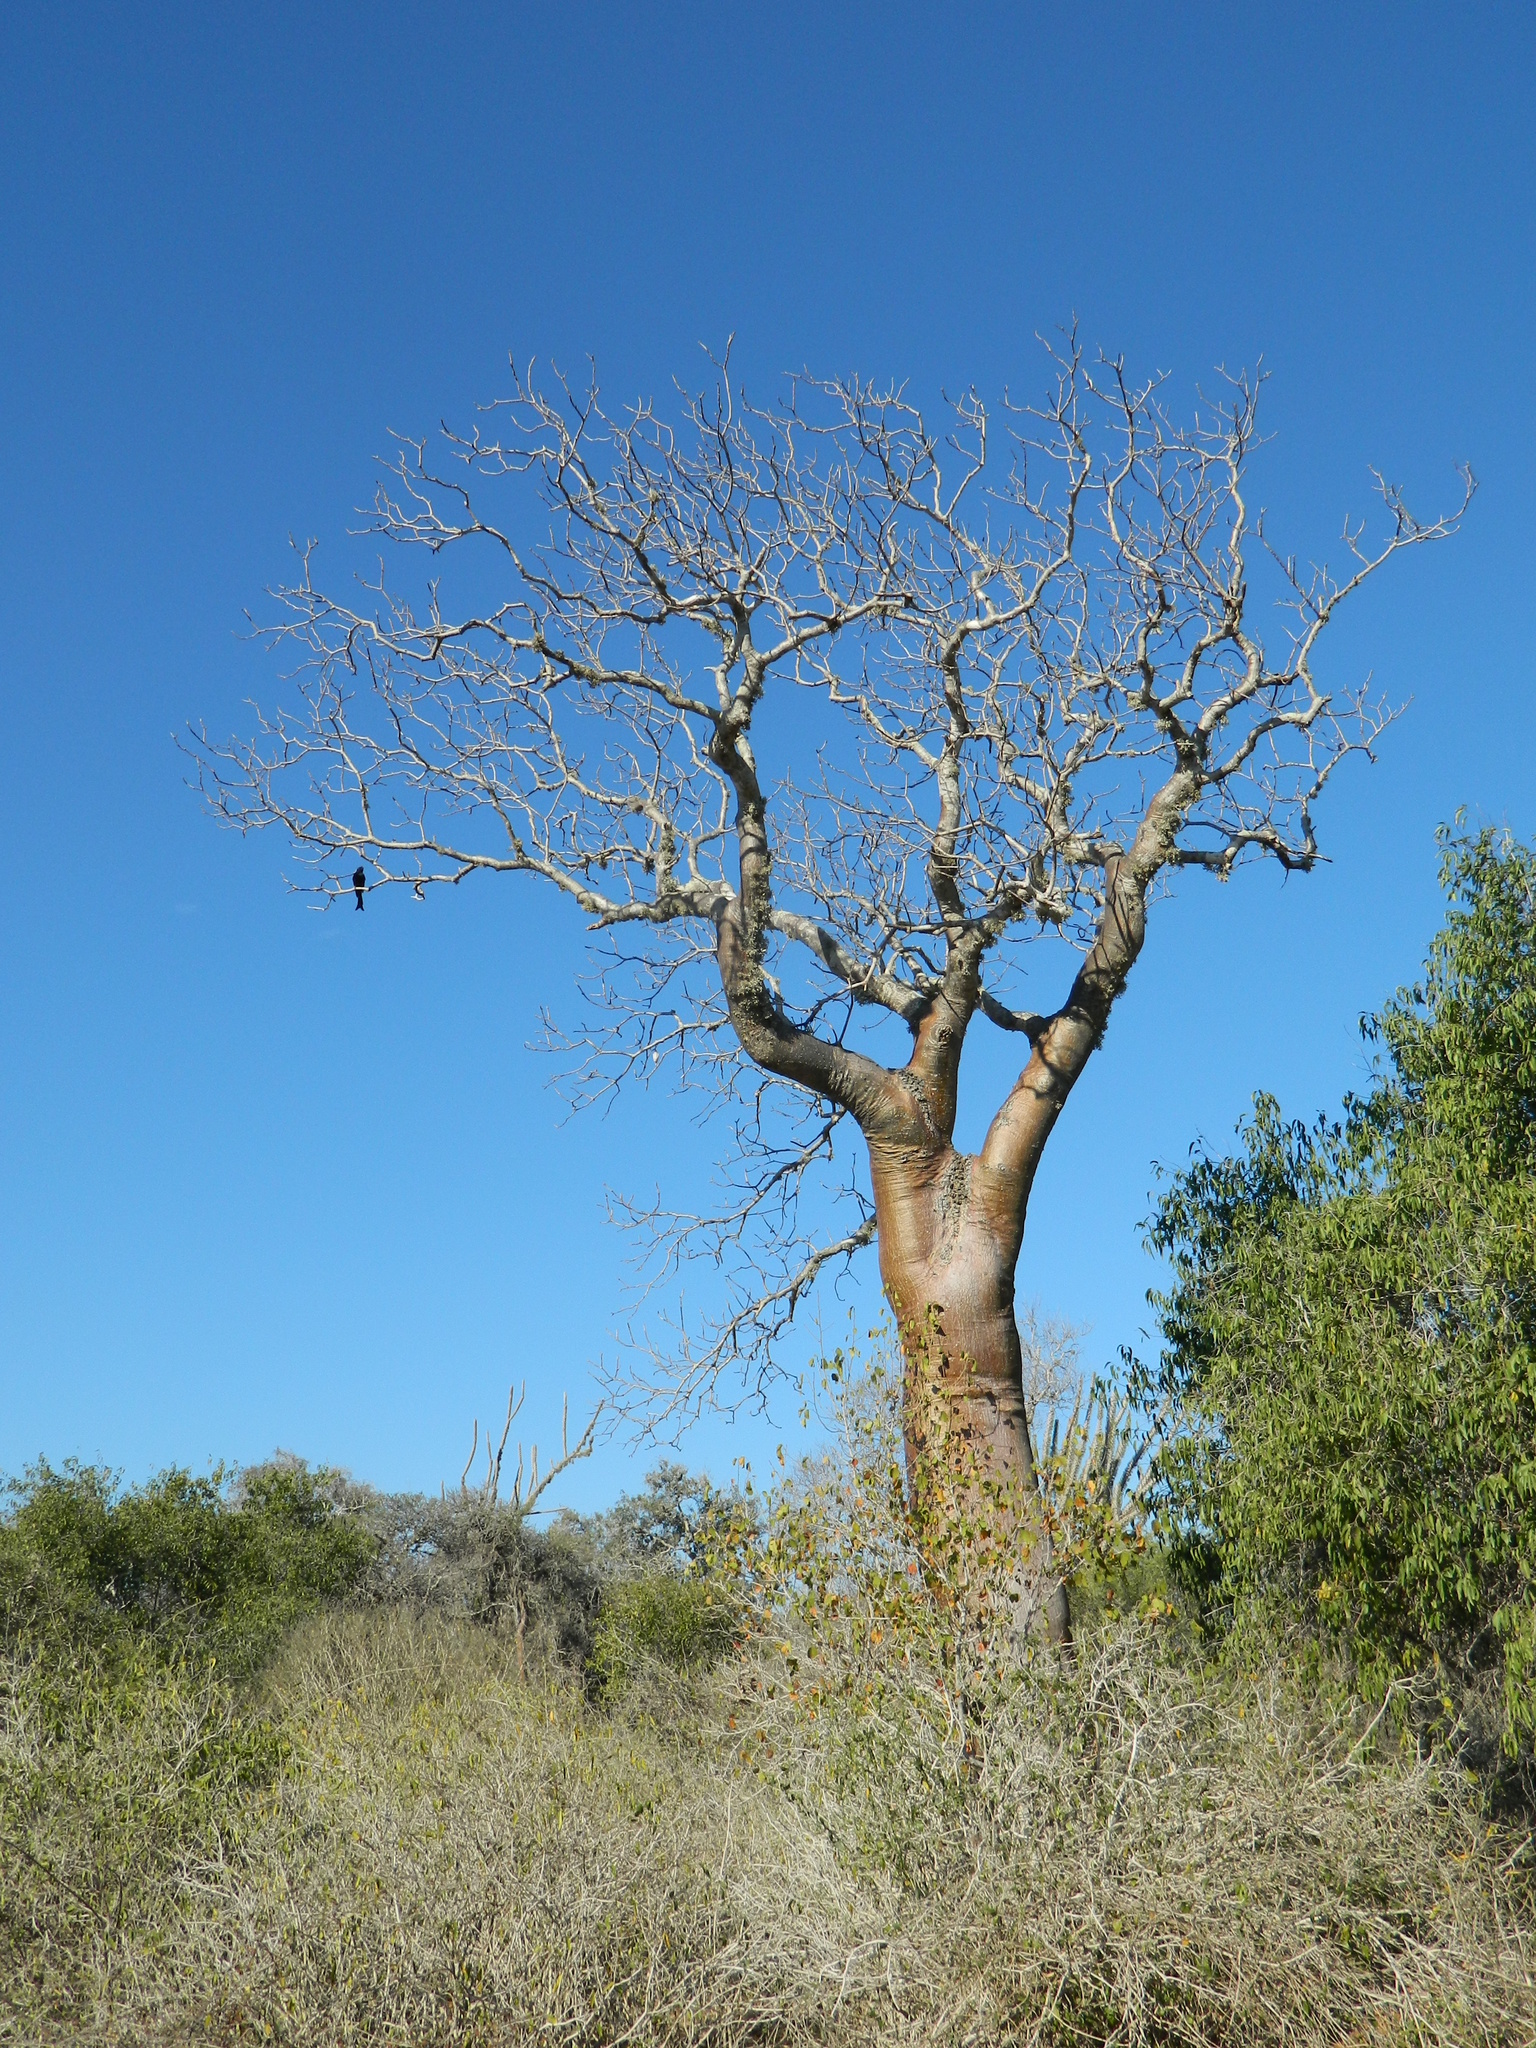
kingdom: Plantae
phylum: Tracheophyta
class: Magnoliopsida
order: Malpighiales
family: Euphorbiaceae
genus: Givotia
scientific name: Givotia madagascariensis
